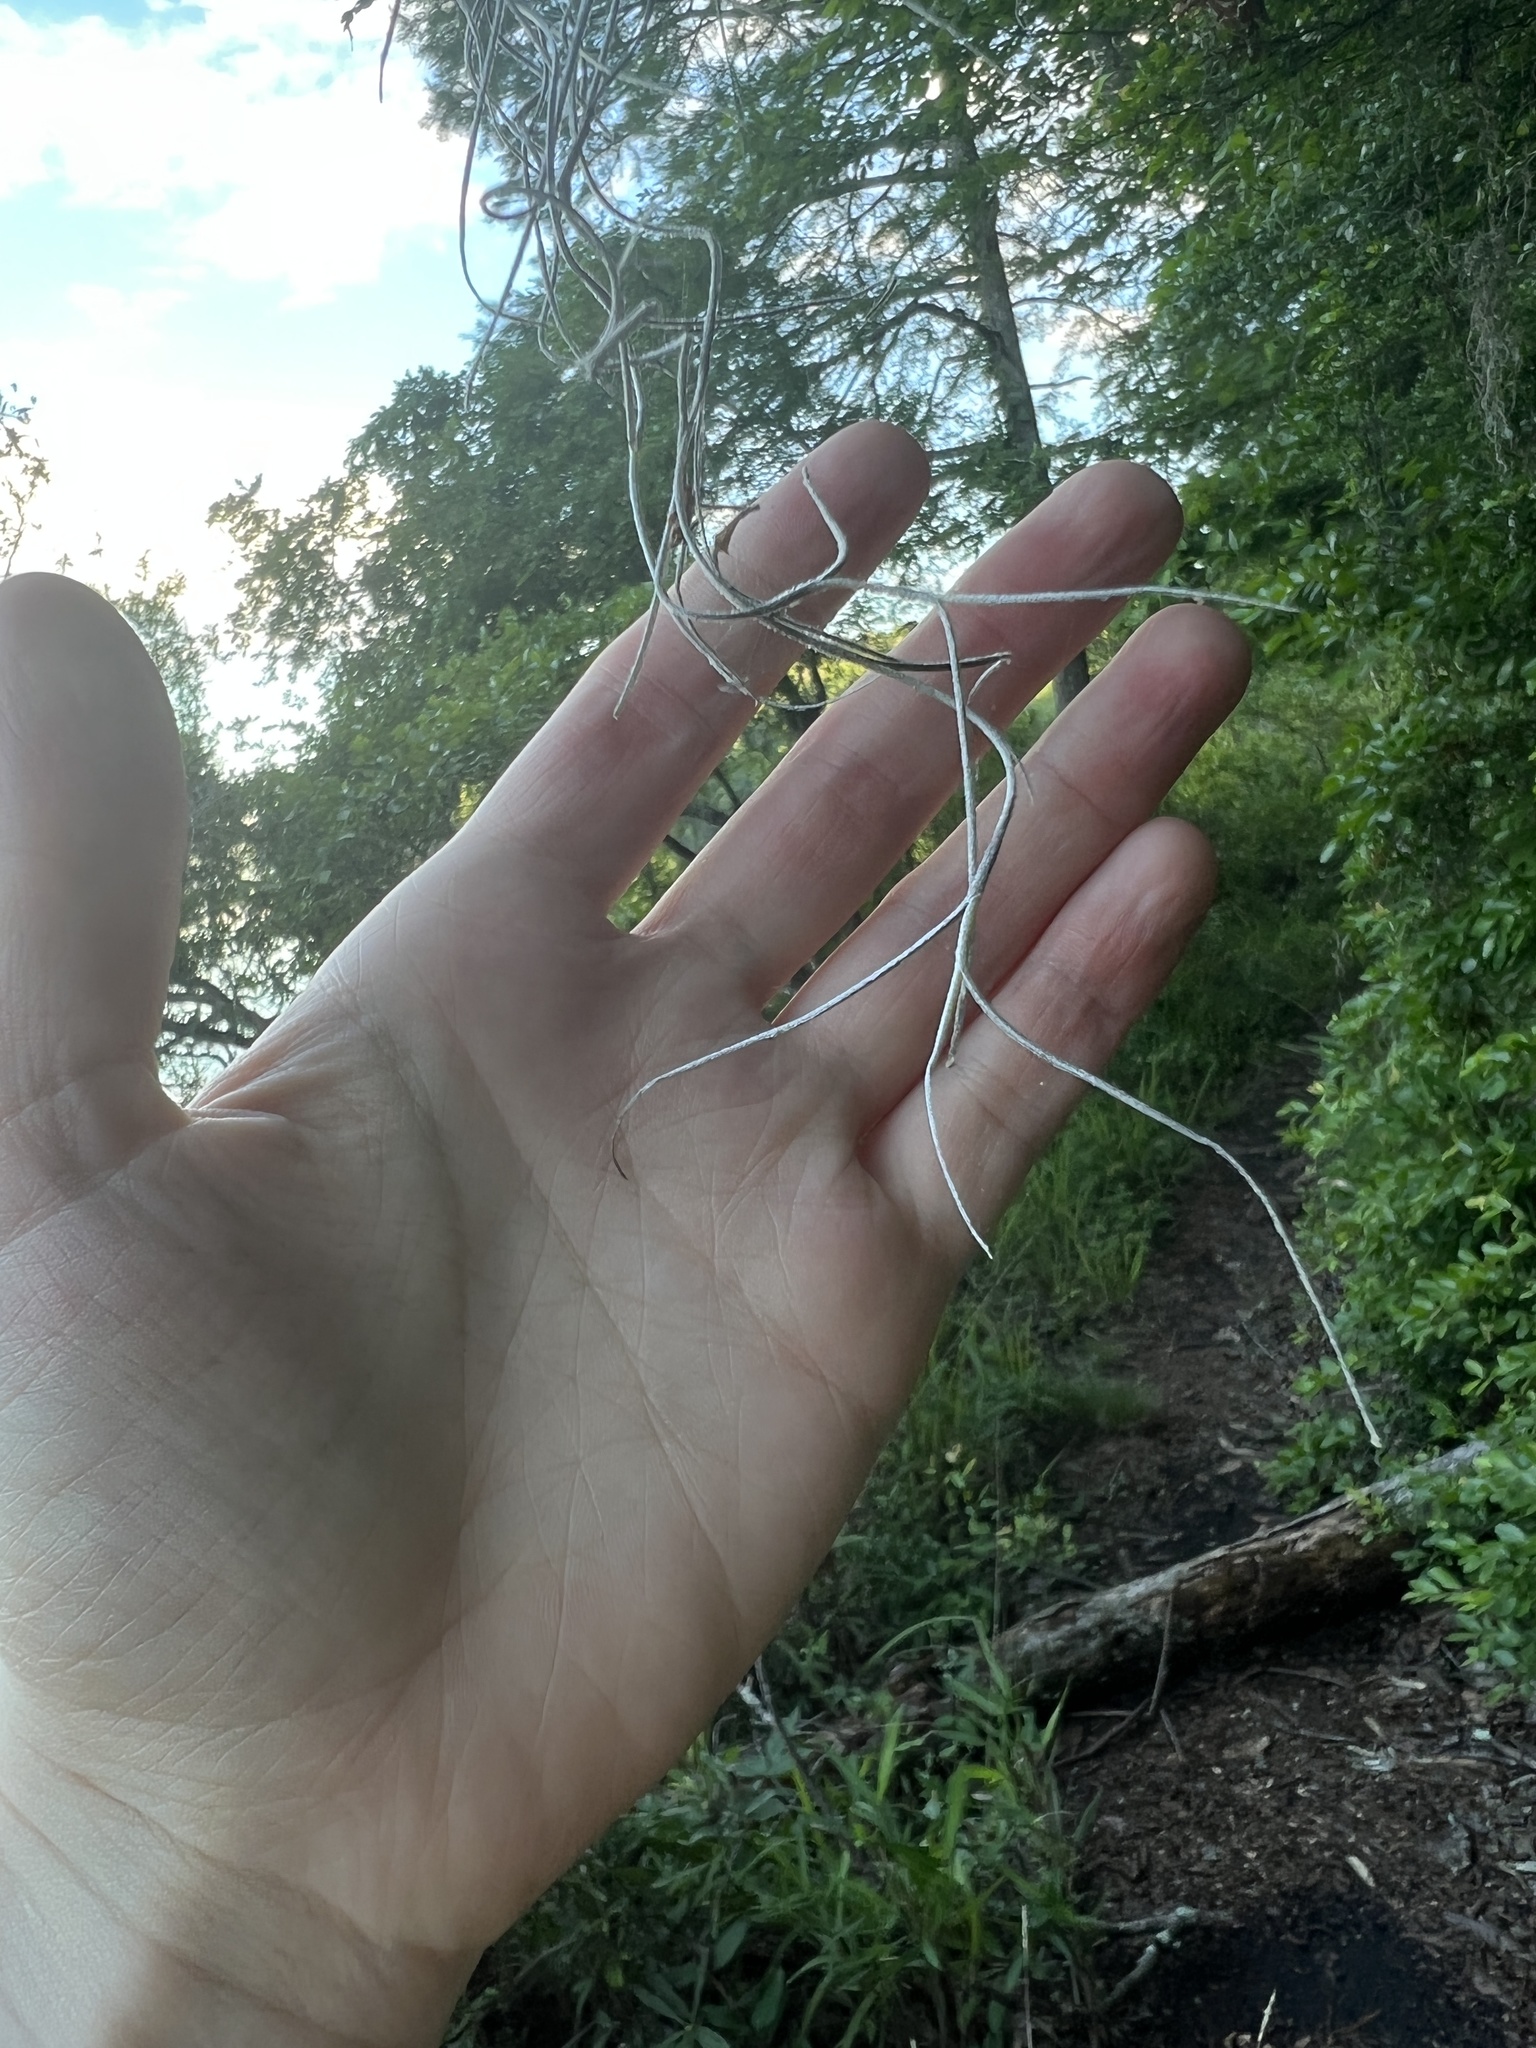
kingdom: Plantae
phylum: Tracheophyta
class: Liliopsida
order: Poales
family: Bromeliaceae
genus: Tillandsia
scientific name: Tillandsia usneoides
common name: Spanish moss
